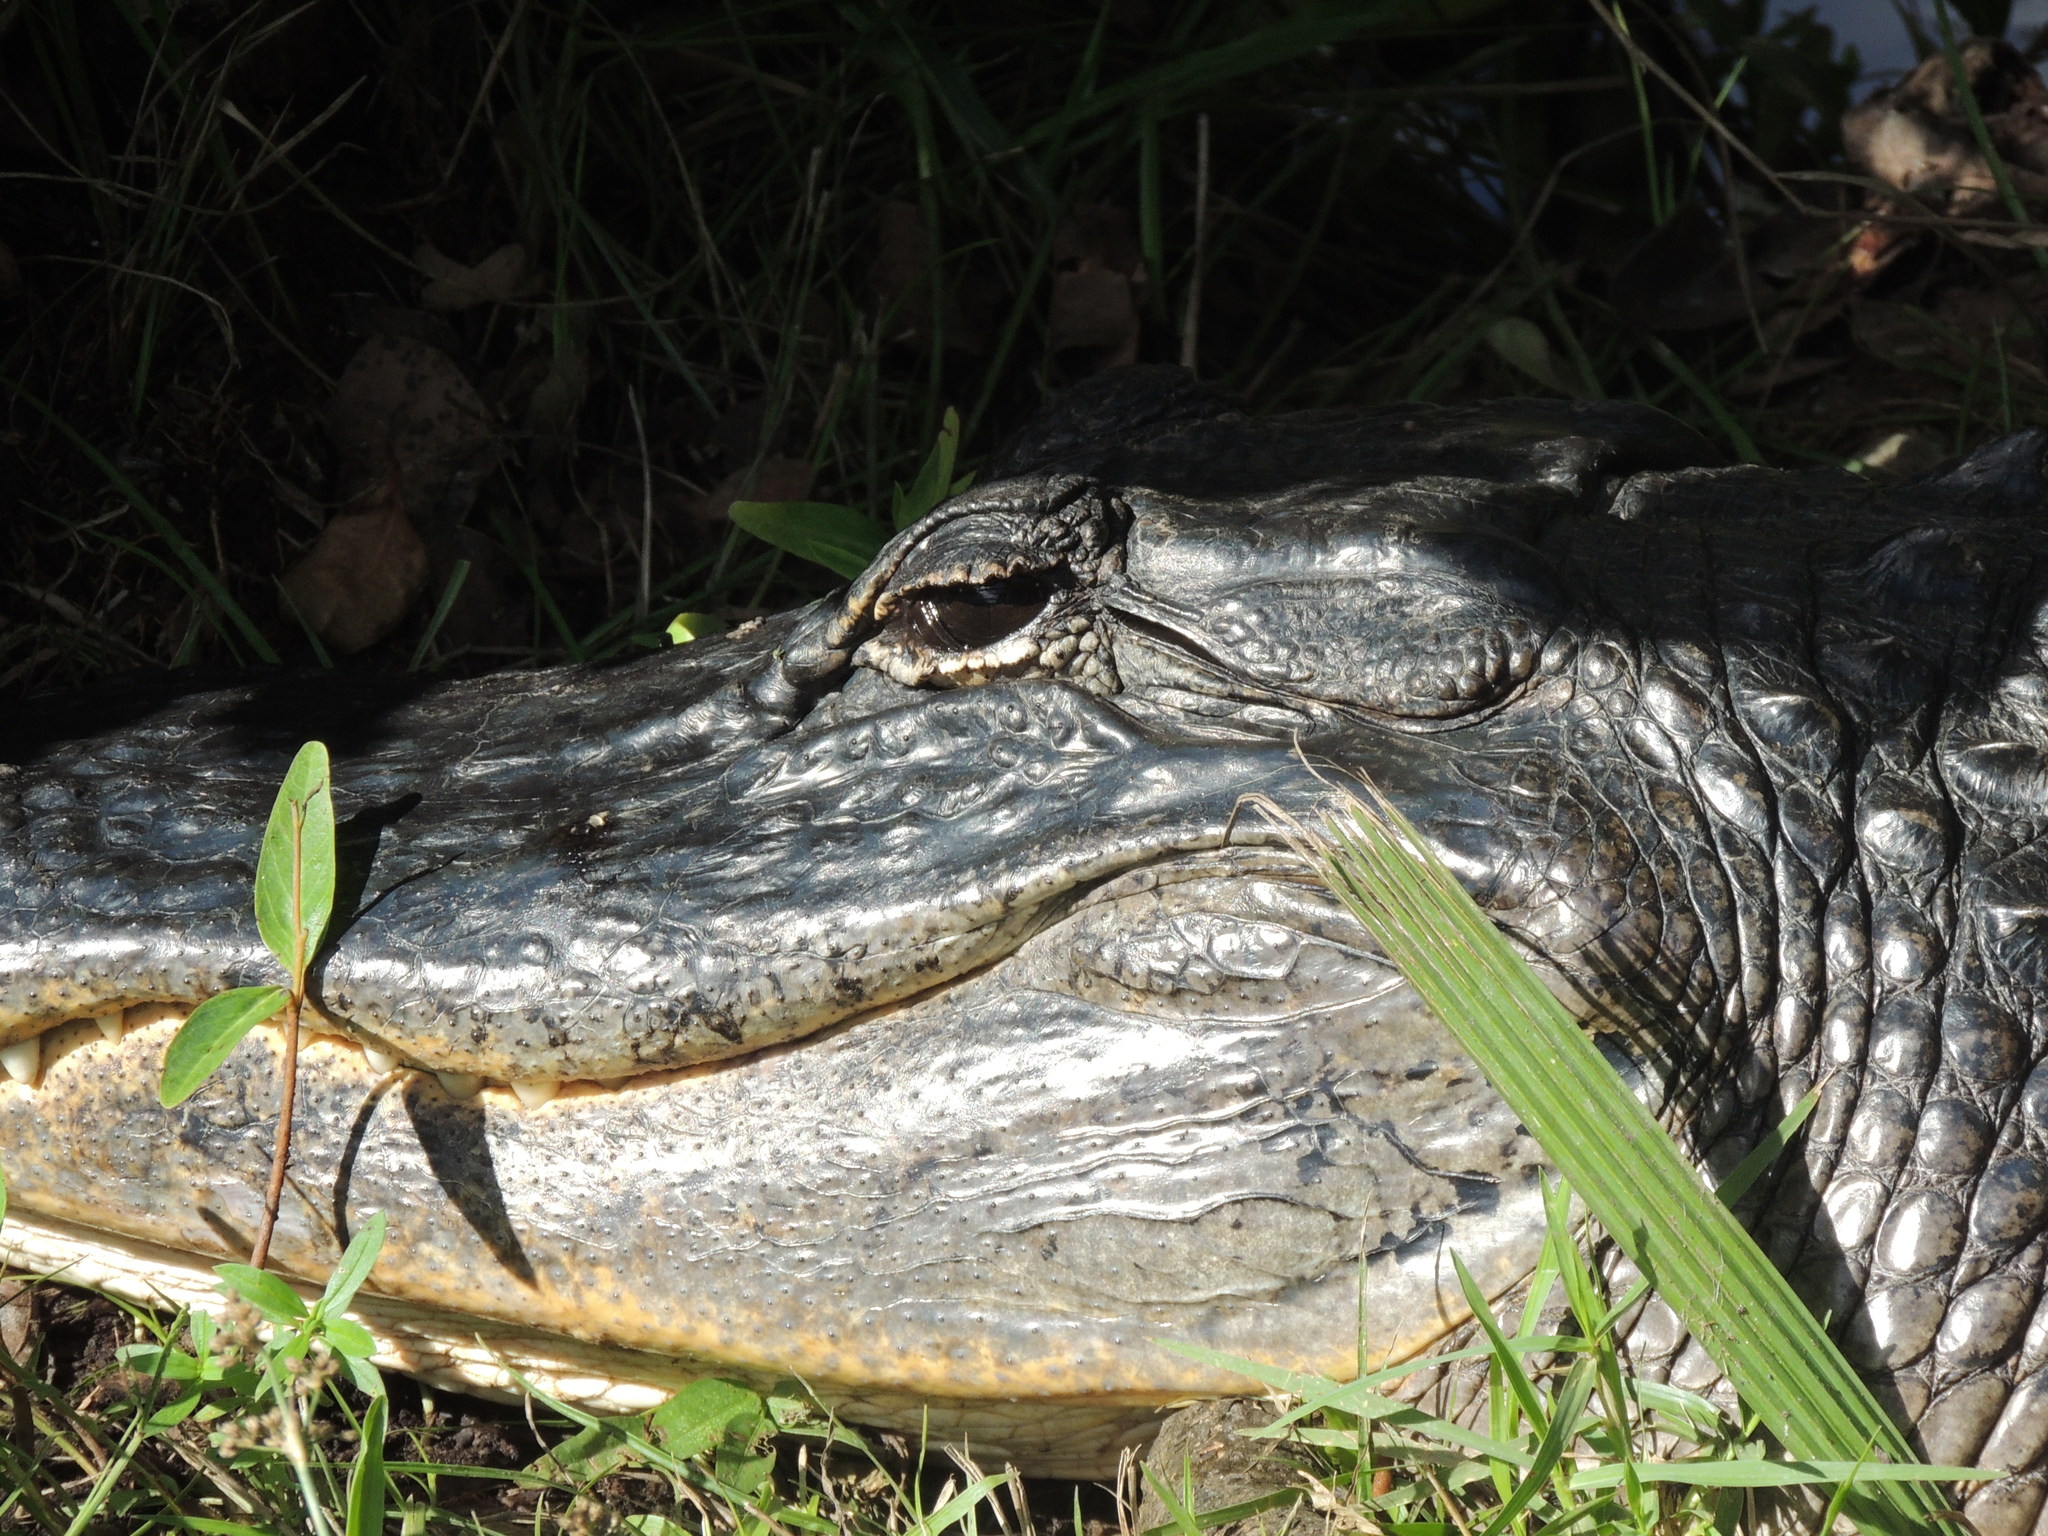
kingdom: Animalia
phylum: Chordata
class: Crocodylia
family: Alligatoridae
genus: Alligator
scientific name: Alligator mississippiensis
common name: American alligator
